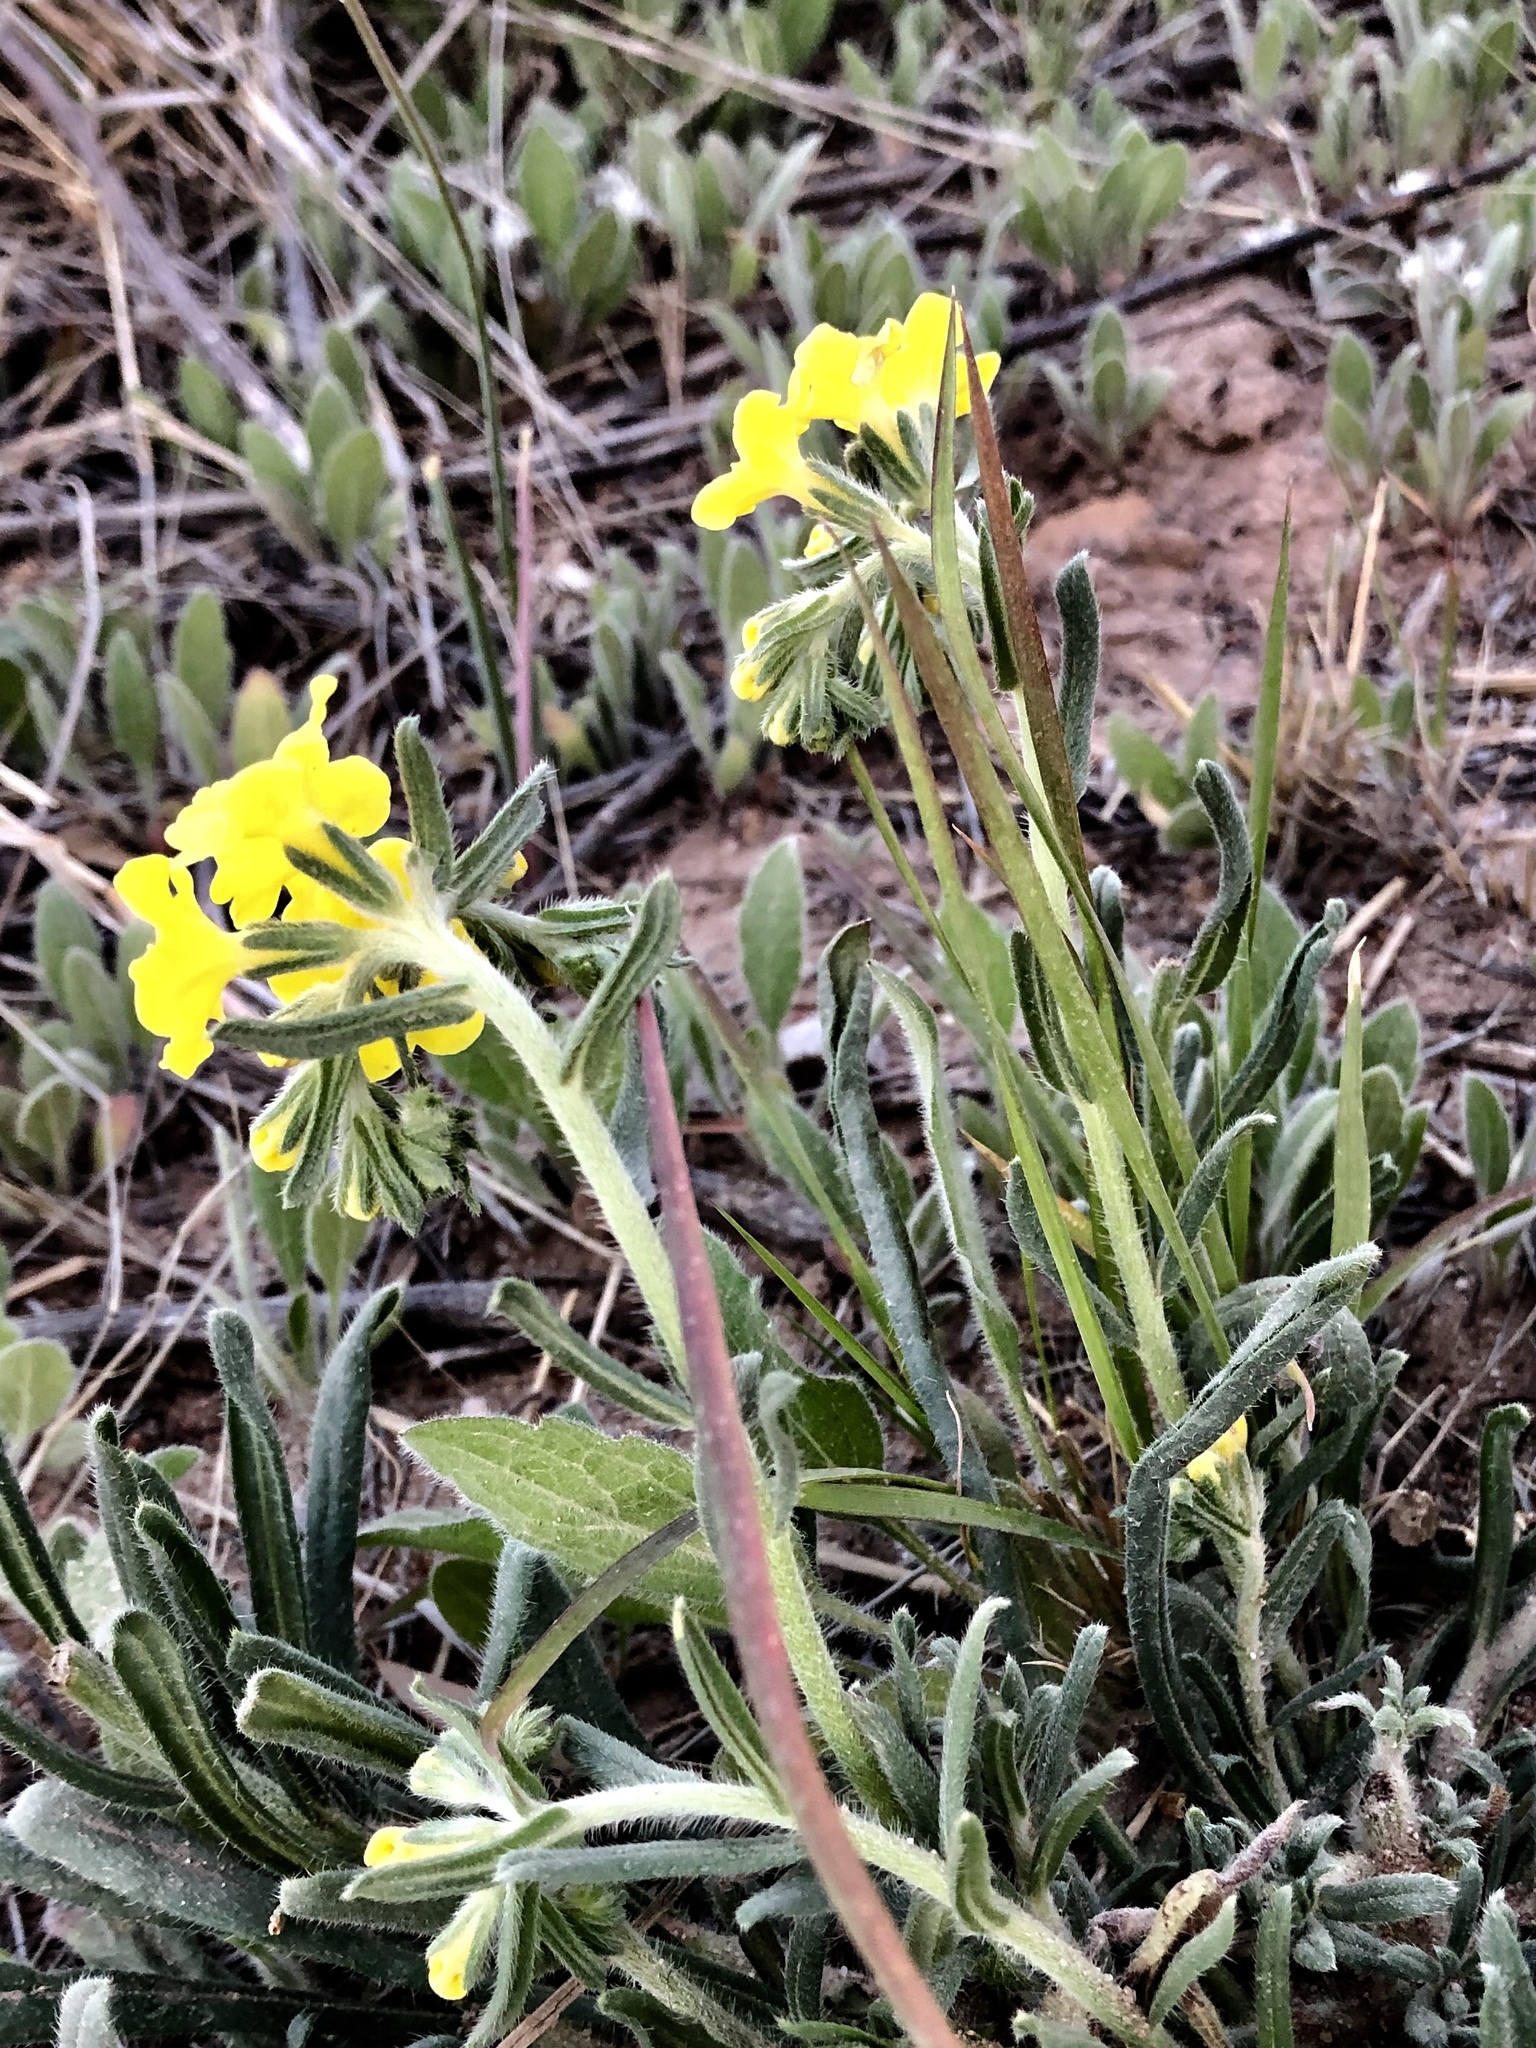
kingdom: Plantae
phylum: Tracheophyta
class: Magnoliopsida
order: Boraginales
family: Boraginaceae
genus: Lithospermum
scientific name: Lithospermum incisum
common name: Fringed gromwell
